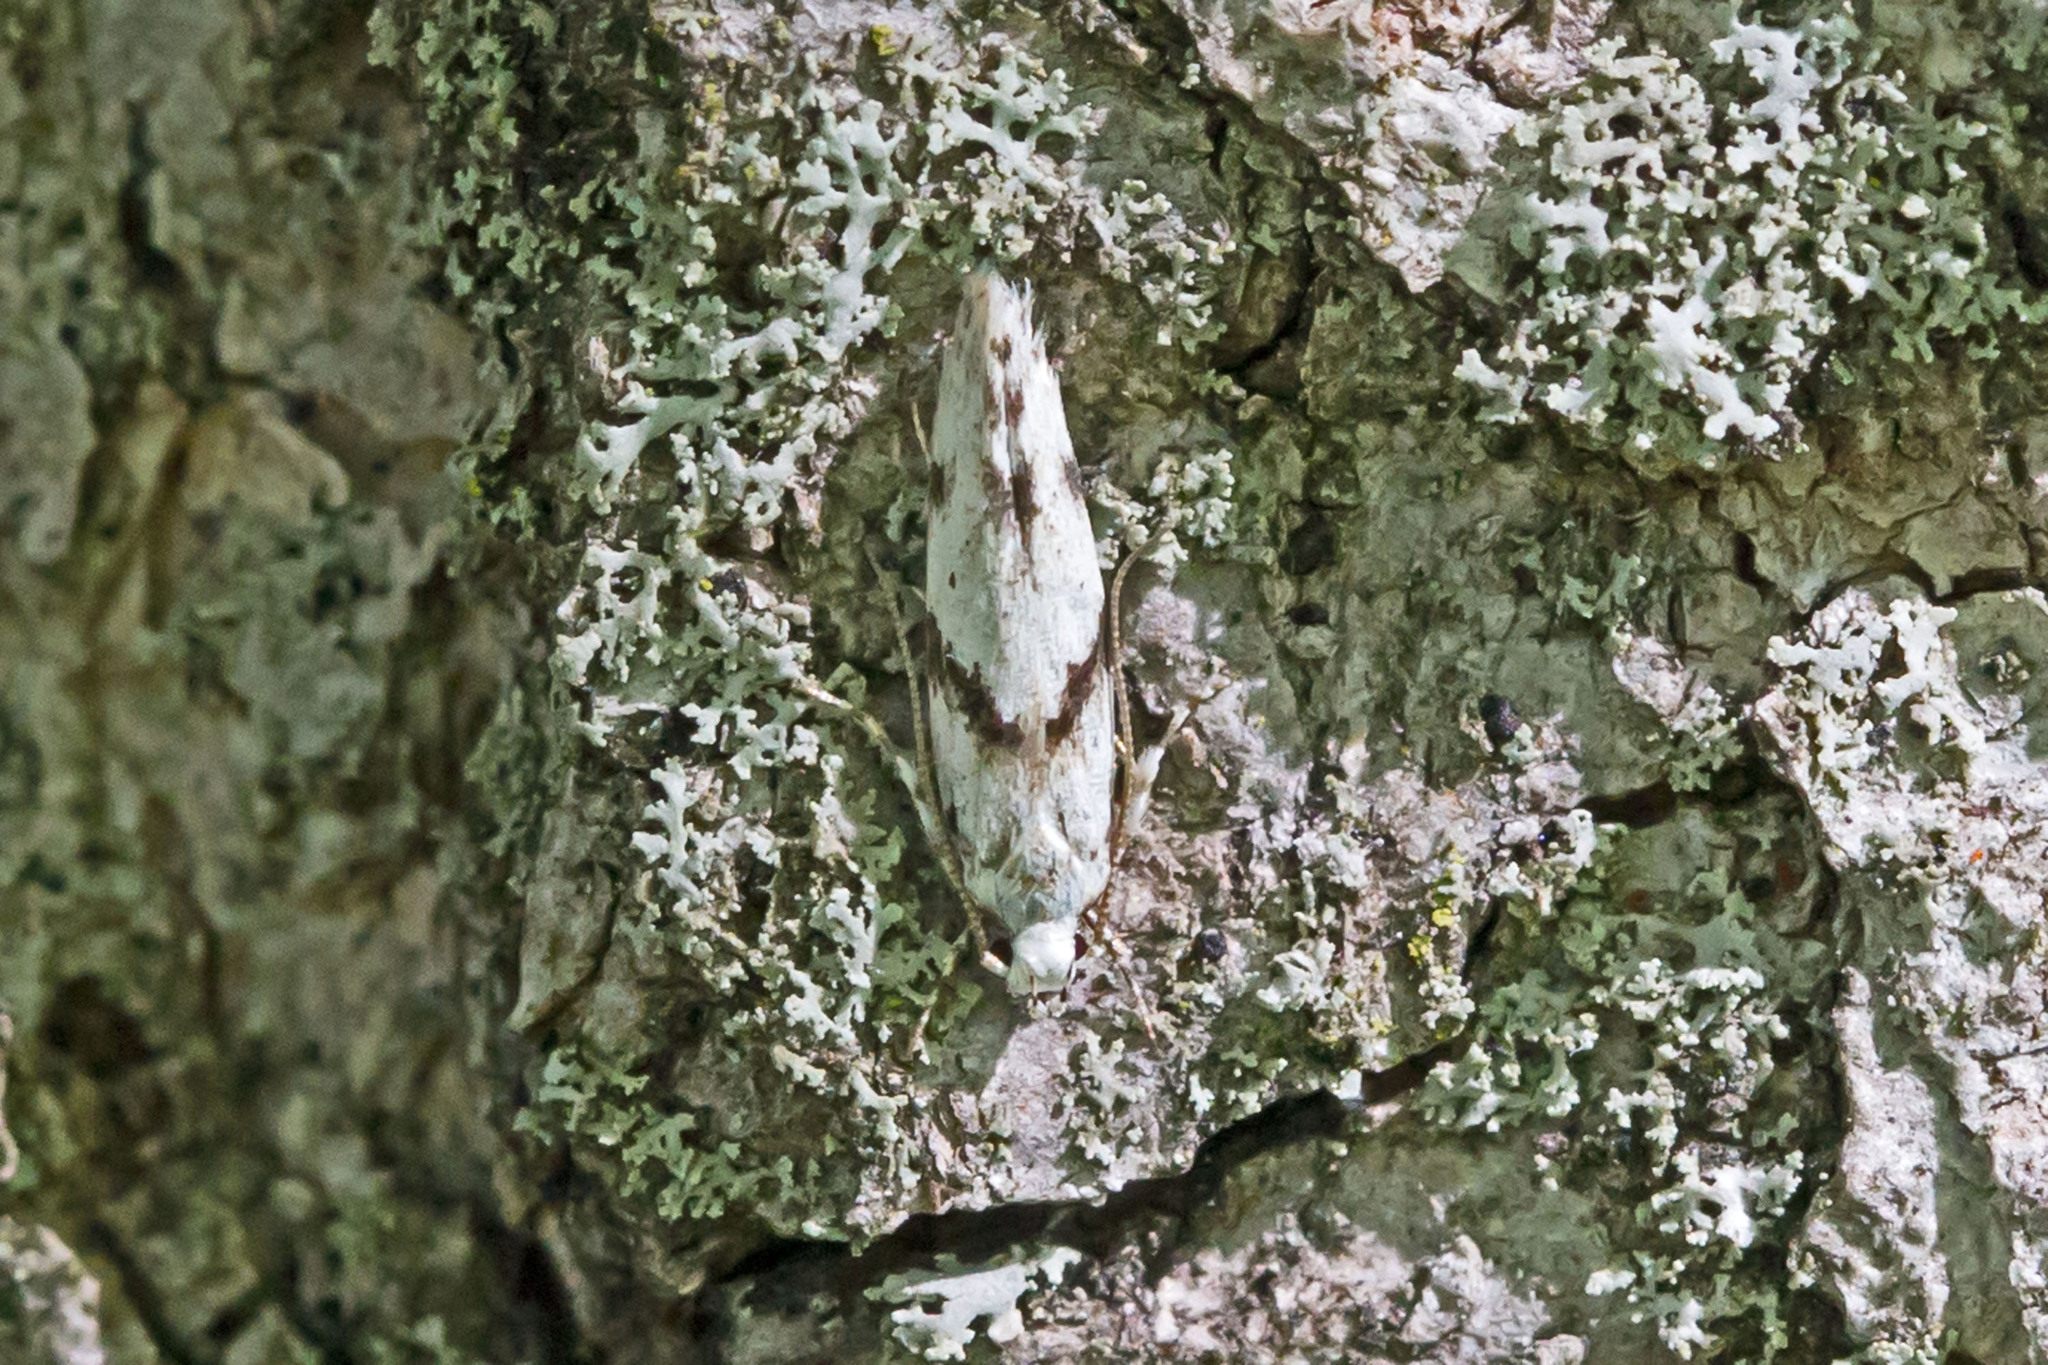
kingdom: Animalia
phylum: Arthropoda
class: Insecta
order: Lepidoptera
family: Gelechiidae
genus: Arogalea
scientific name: Arogalea cristifasciella
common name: White stripe-backed moth
